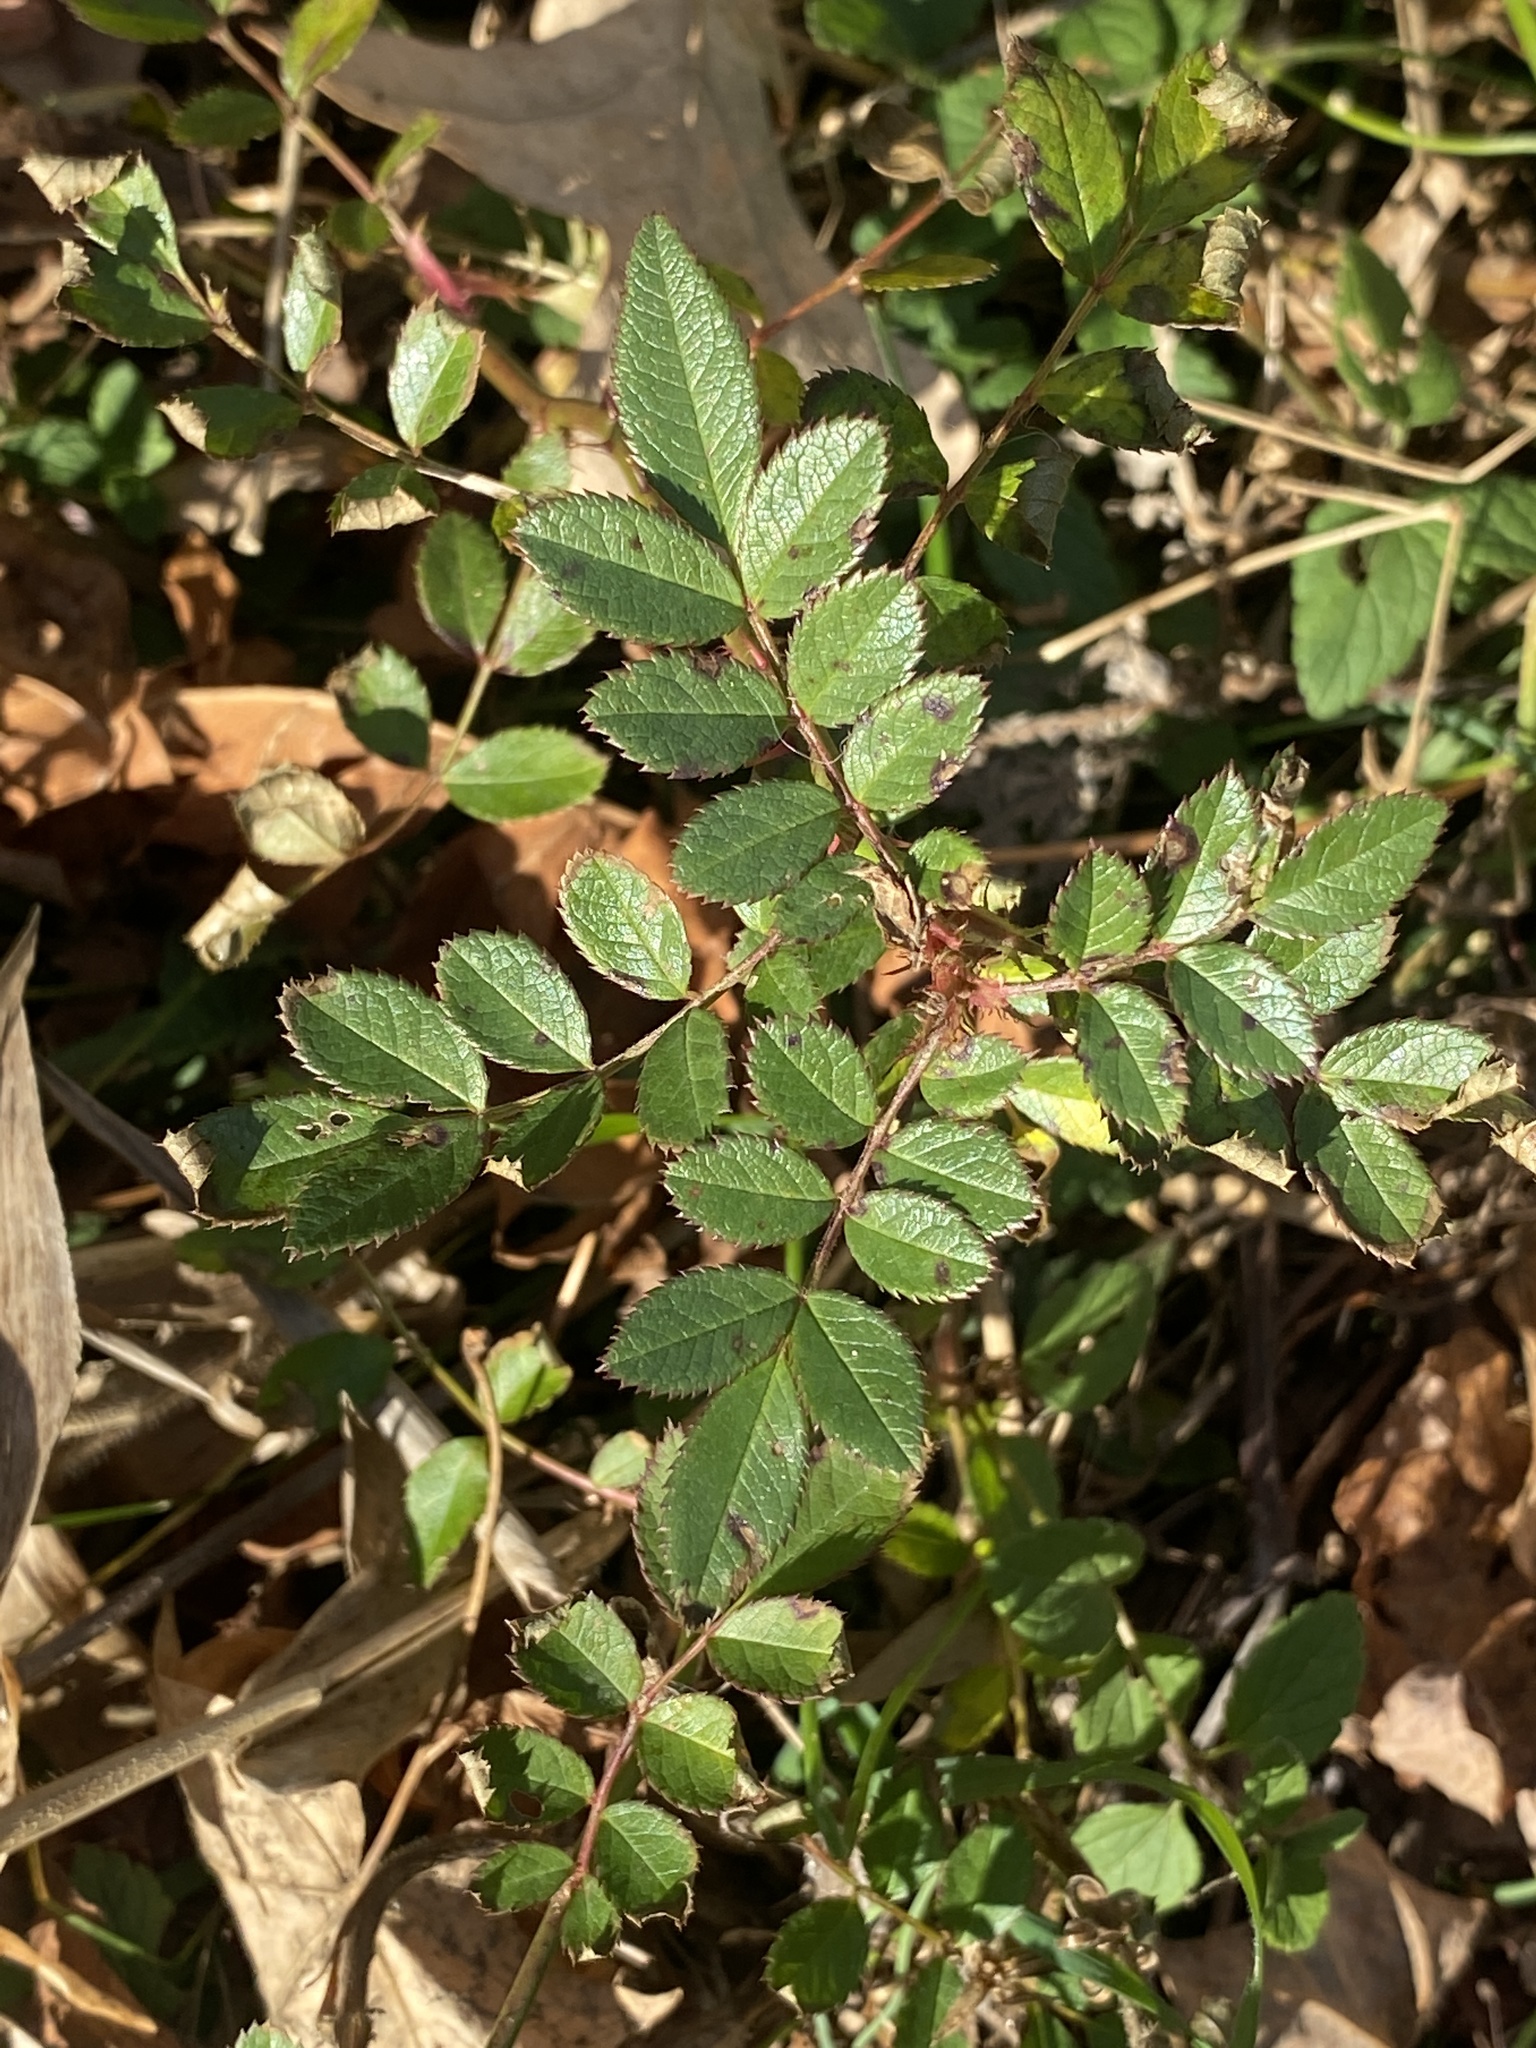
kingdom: Plantae
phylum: Tracheophyta
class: Magnoliopsida
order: Rosales
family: Rosaceae
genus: Rosa
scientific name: Rosa multiflora
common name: Multiflora rose
